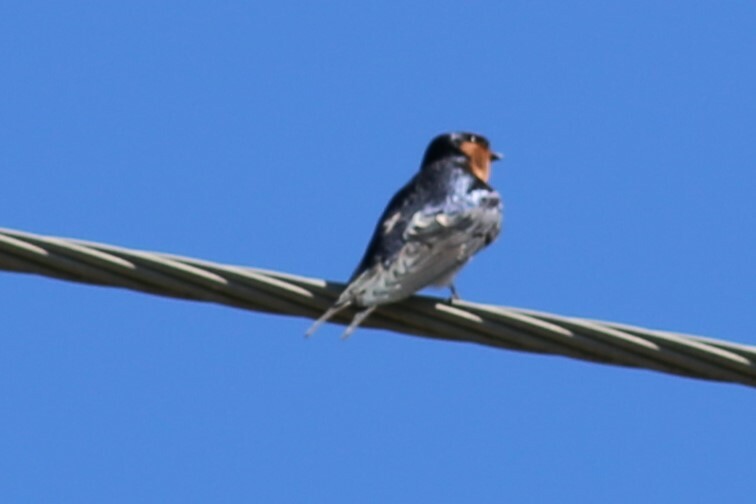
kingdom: Animalia
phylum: Chordata
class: Aves
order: Passeriformes
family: Hirundinidae
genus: Hirundo
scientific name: Hirundo neoxena
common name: Welcome swallow
